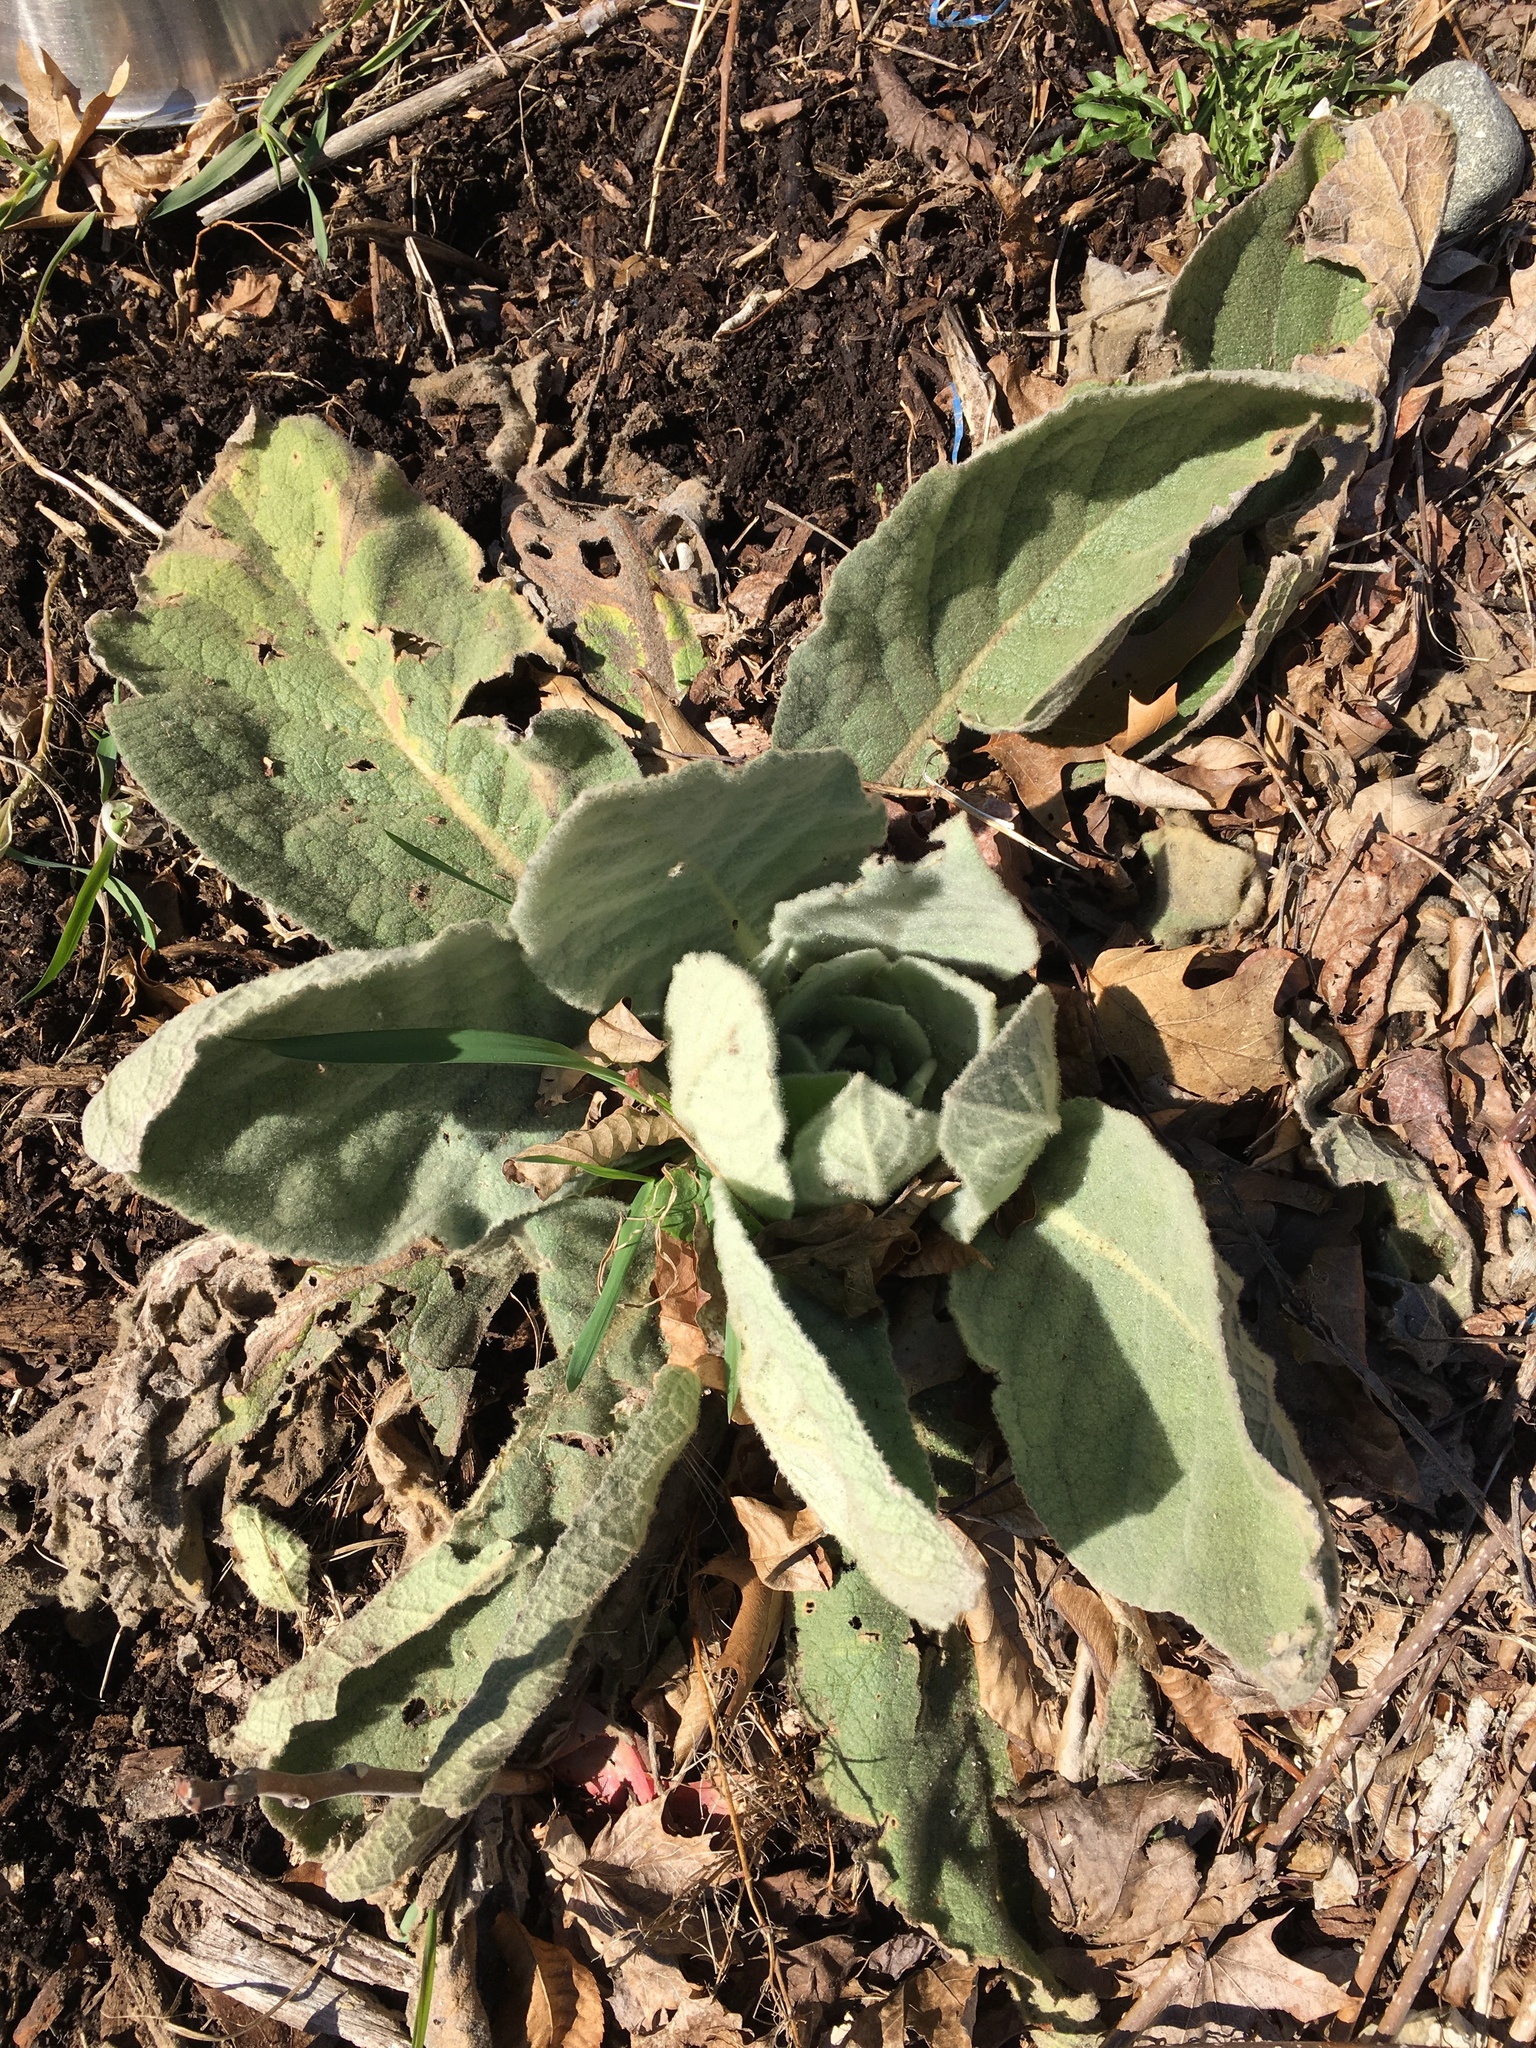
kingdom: Plantae
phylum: Tracheophyta
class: Magnoliopsida
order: Lamiales
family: Scrophulariaceae
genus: Verbascum
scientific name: Verbascum thapsus
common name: Common mullein
